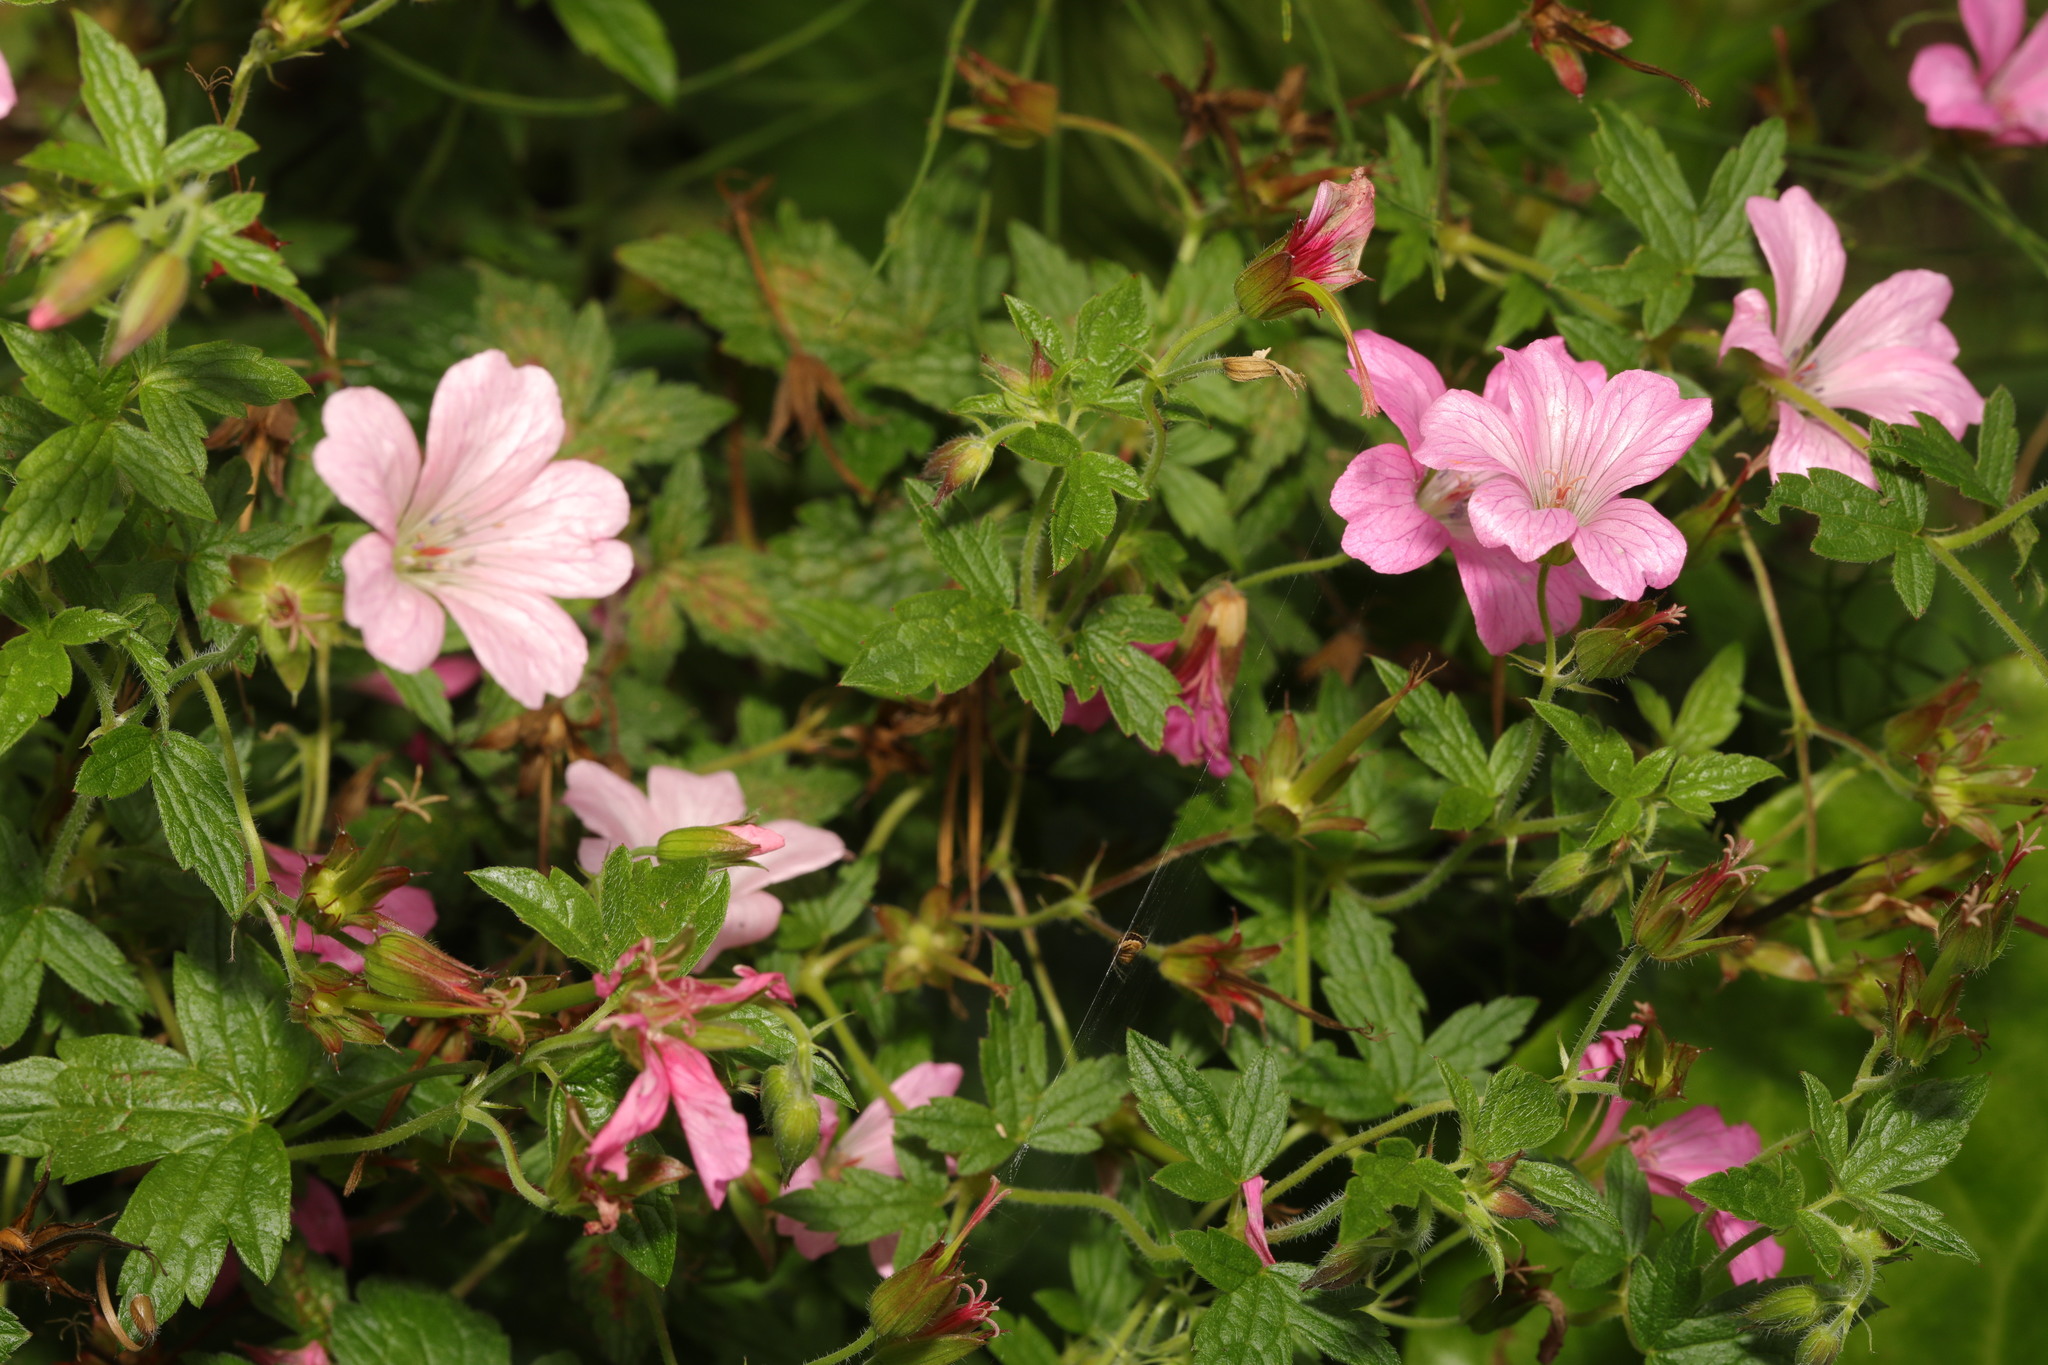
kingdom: Plantae
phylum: Tracheophyta
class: Magnoliopsida
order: Geraniales
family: Geraniaceae
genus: Geranium
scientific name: Geranium oxonianum
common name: Druce's crane's-bill
